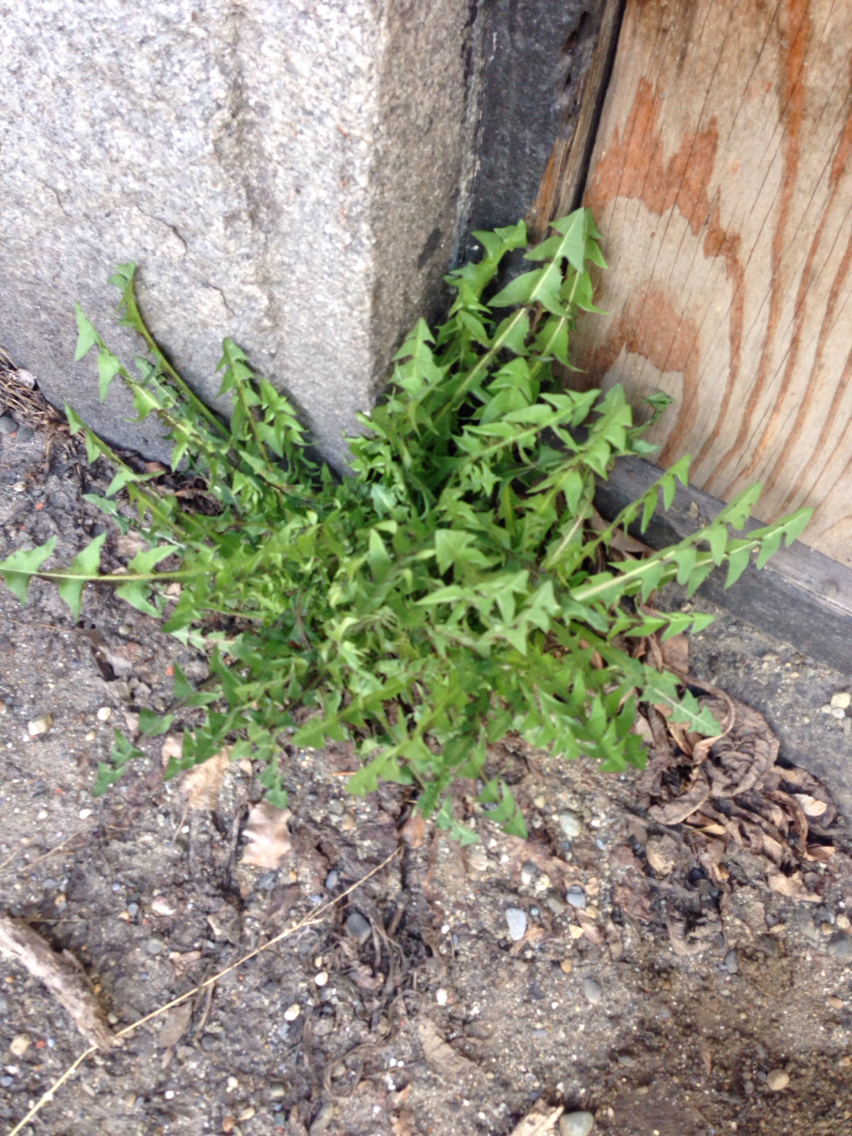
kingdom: Plantae
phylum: Tracheophyta
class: Magnoliopsida
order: Asterales
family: Asteraceae
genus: Taraxacum
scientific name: Taraxacum
